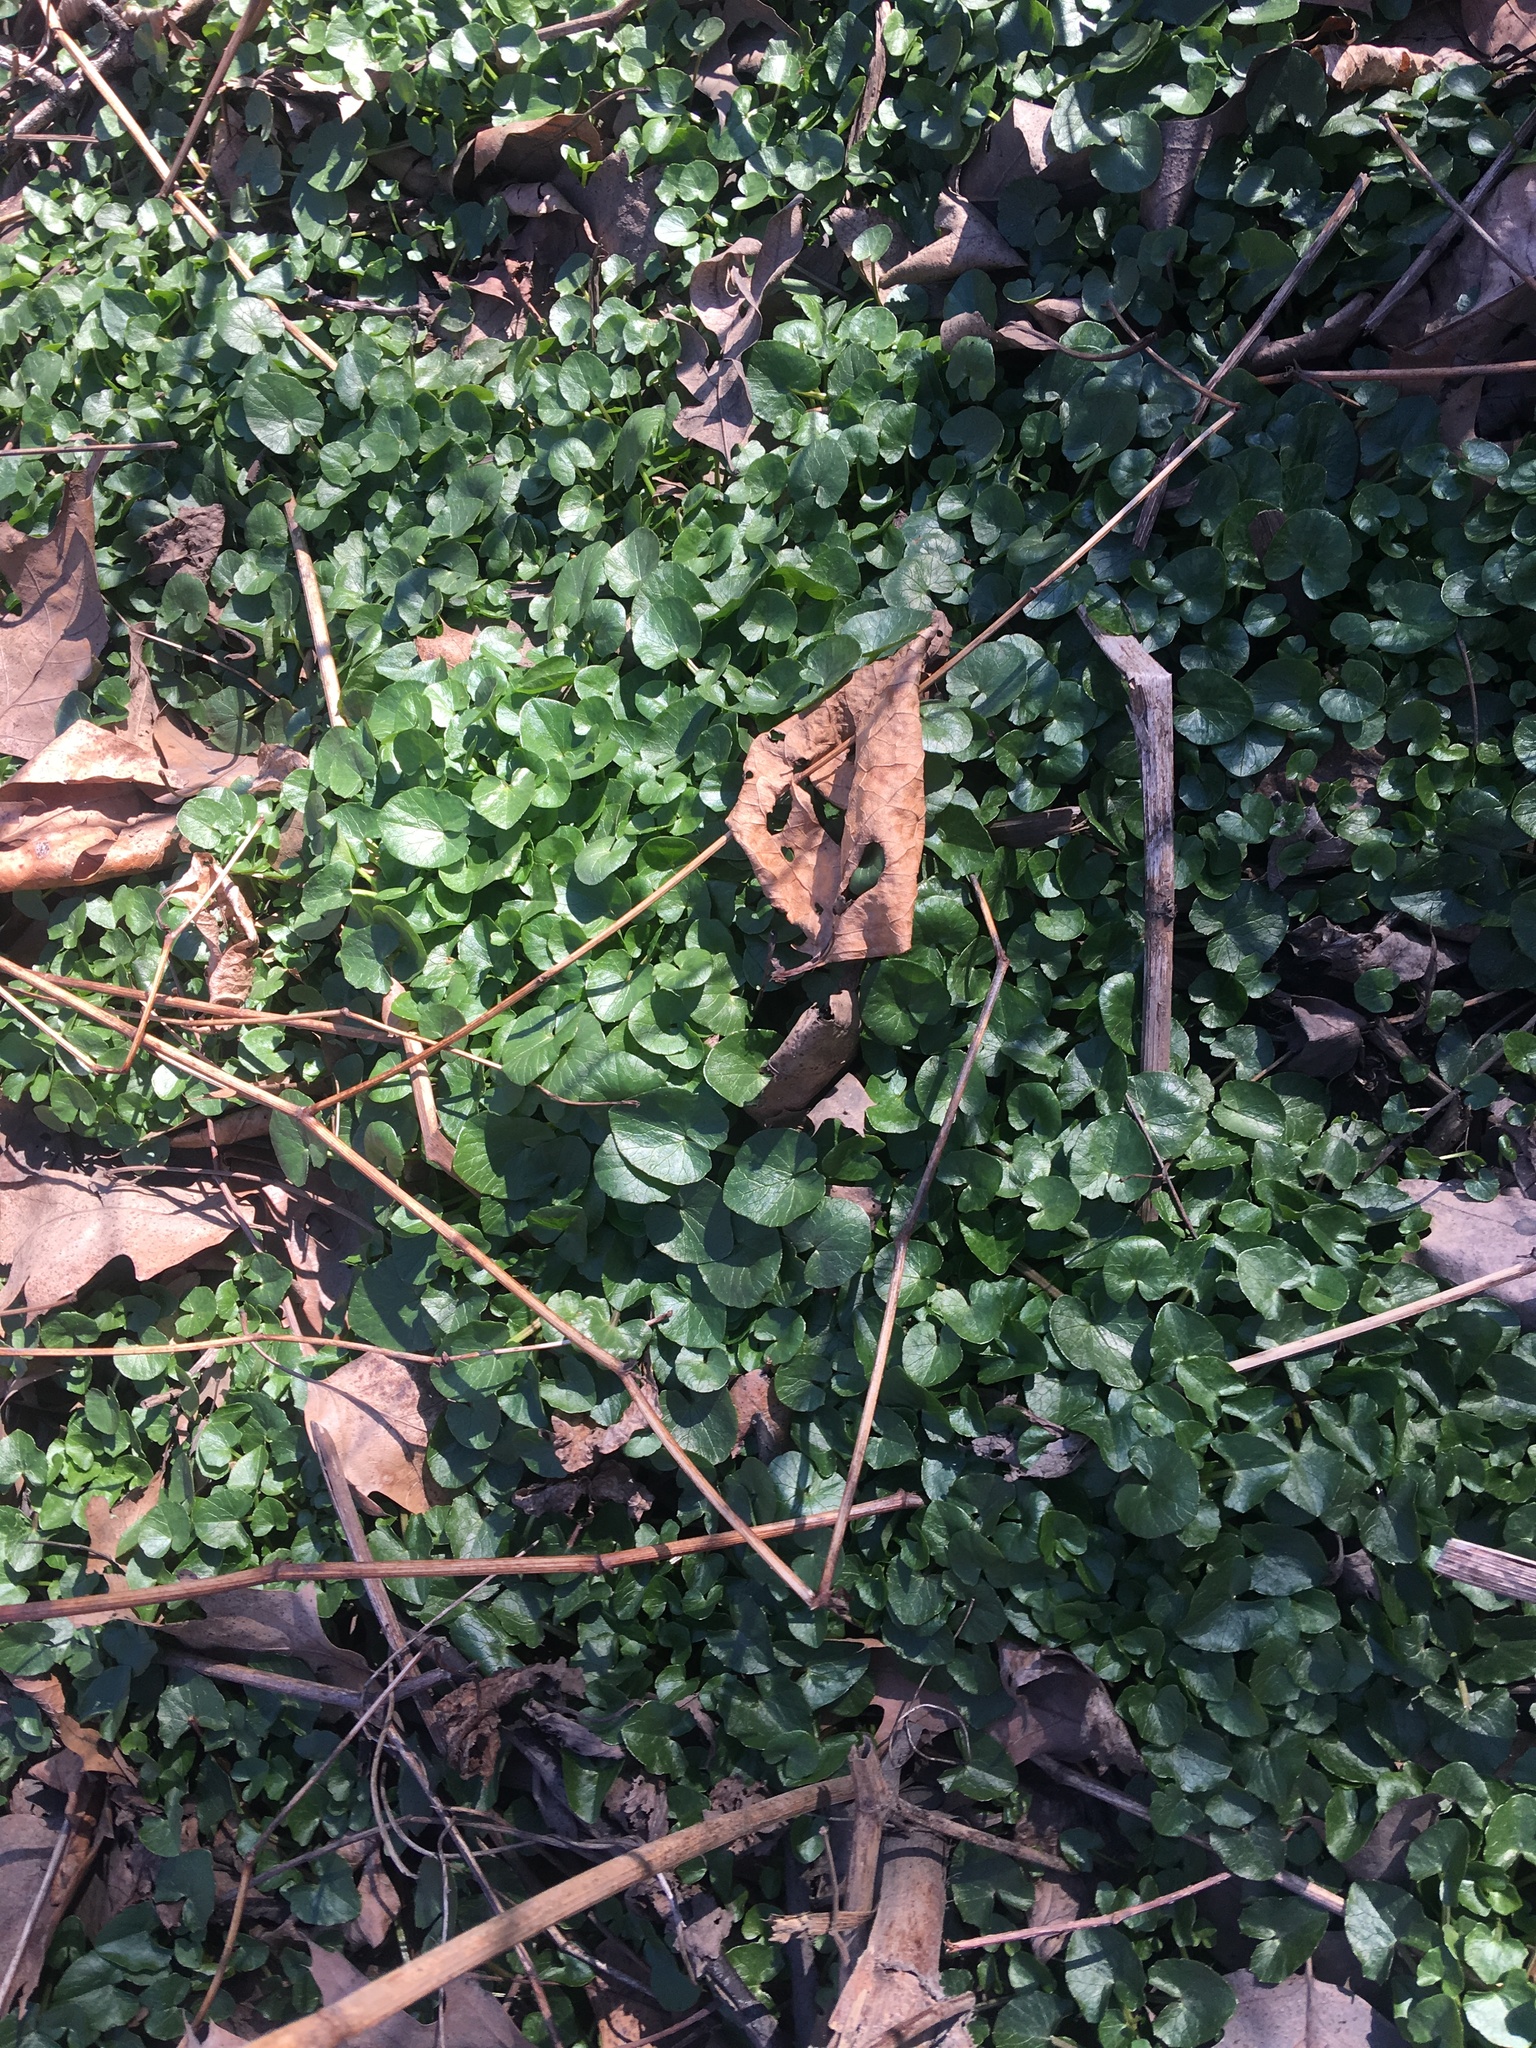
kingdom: Plantae
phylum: Tracheophyta
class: Magnoliopsida
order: Ranunculales
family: Ranunculaceae
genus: Ficaria
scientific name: Ficaria verna
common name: Lesser celandine
